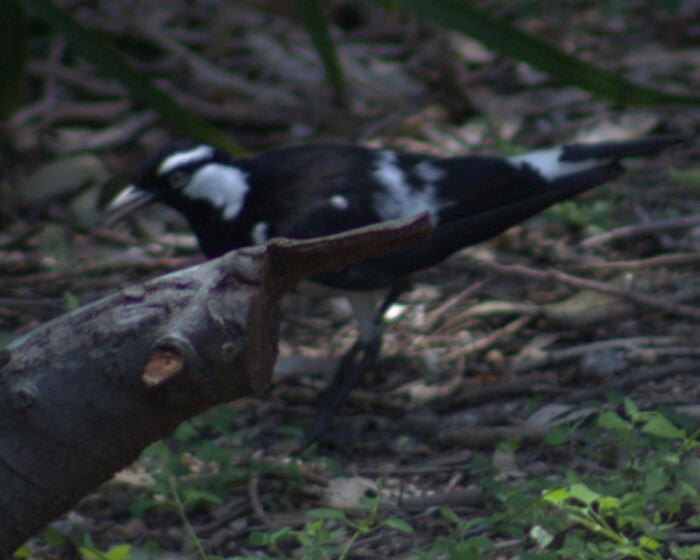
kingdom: Animalia
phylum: Chordata
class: Aves
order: Passeriformes
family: Monarchidae
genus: Grallina
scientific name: Grallina cyanoleuca
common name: Magpie-lark
